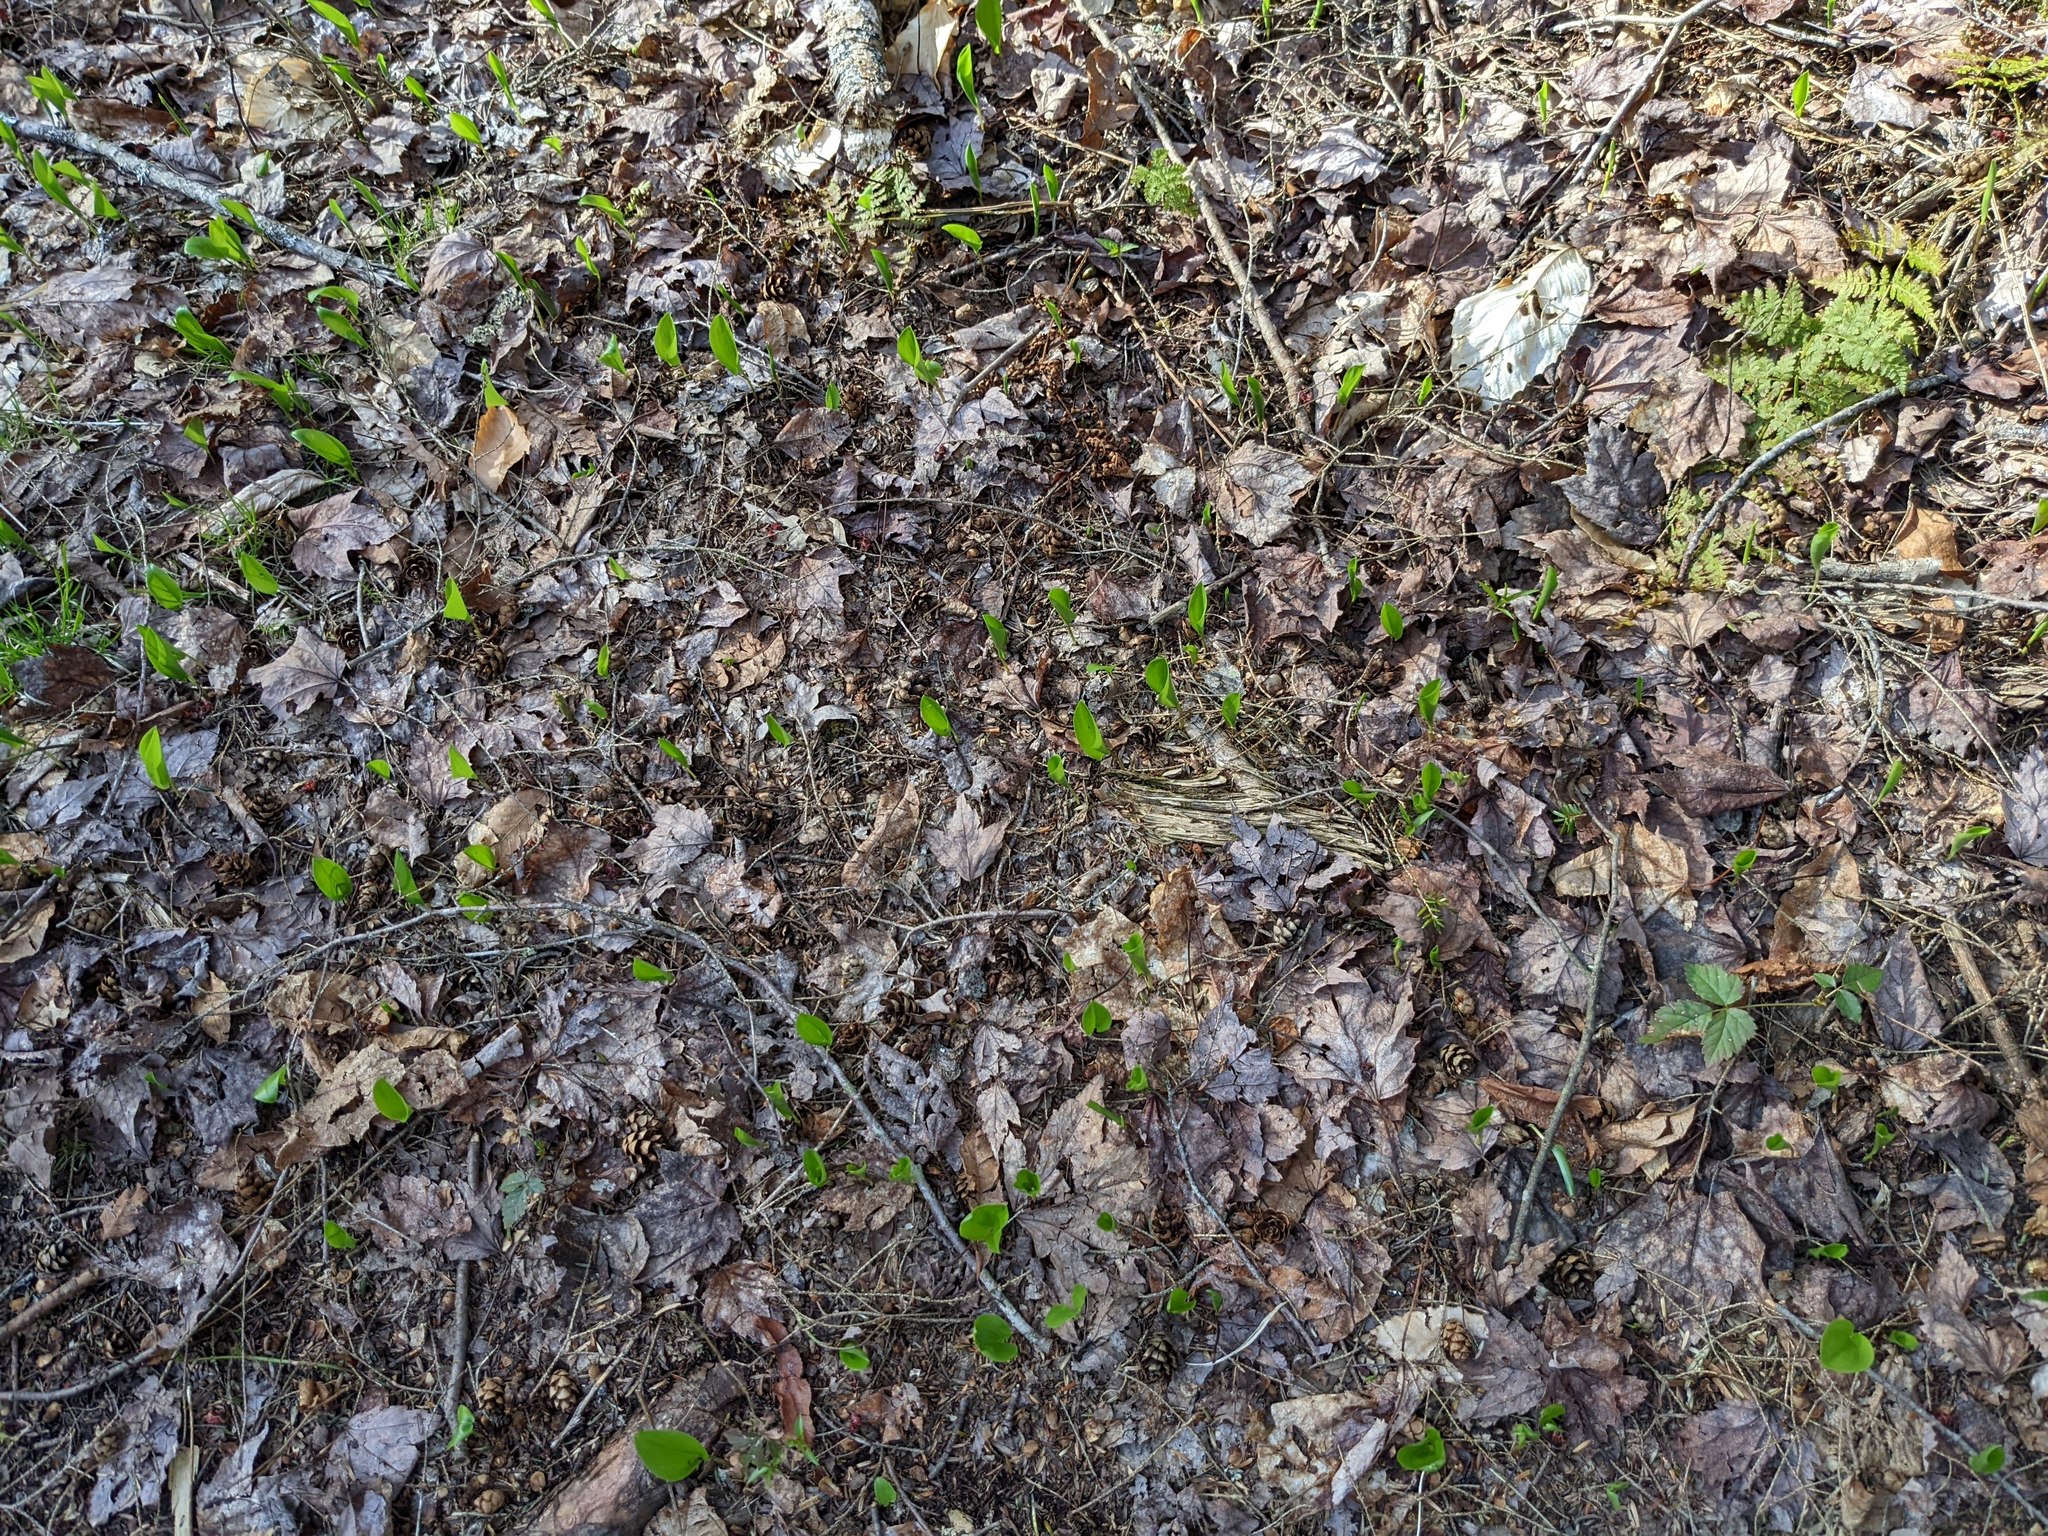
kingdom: Plantae
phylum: Tracheophyta
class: Liliopsida
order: Asparagales
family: Asparagaceae
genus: Maianthemum
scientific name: Maianthemum canadense
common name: False lily-of-the-valley
